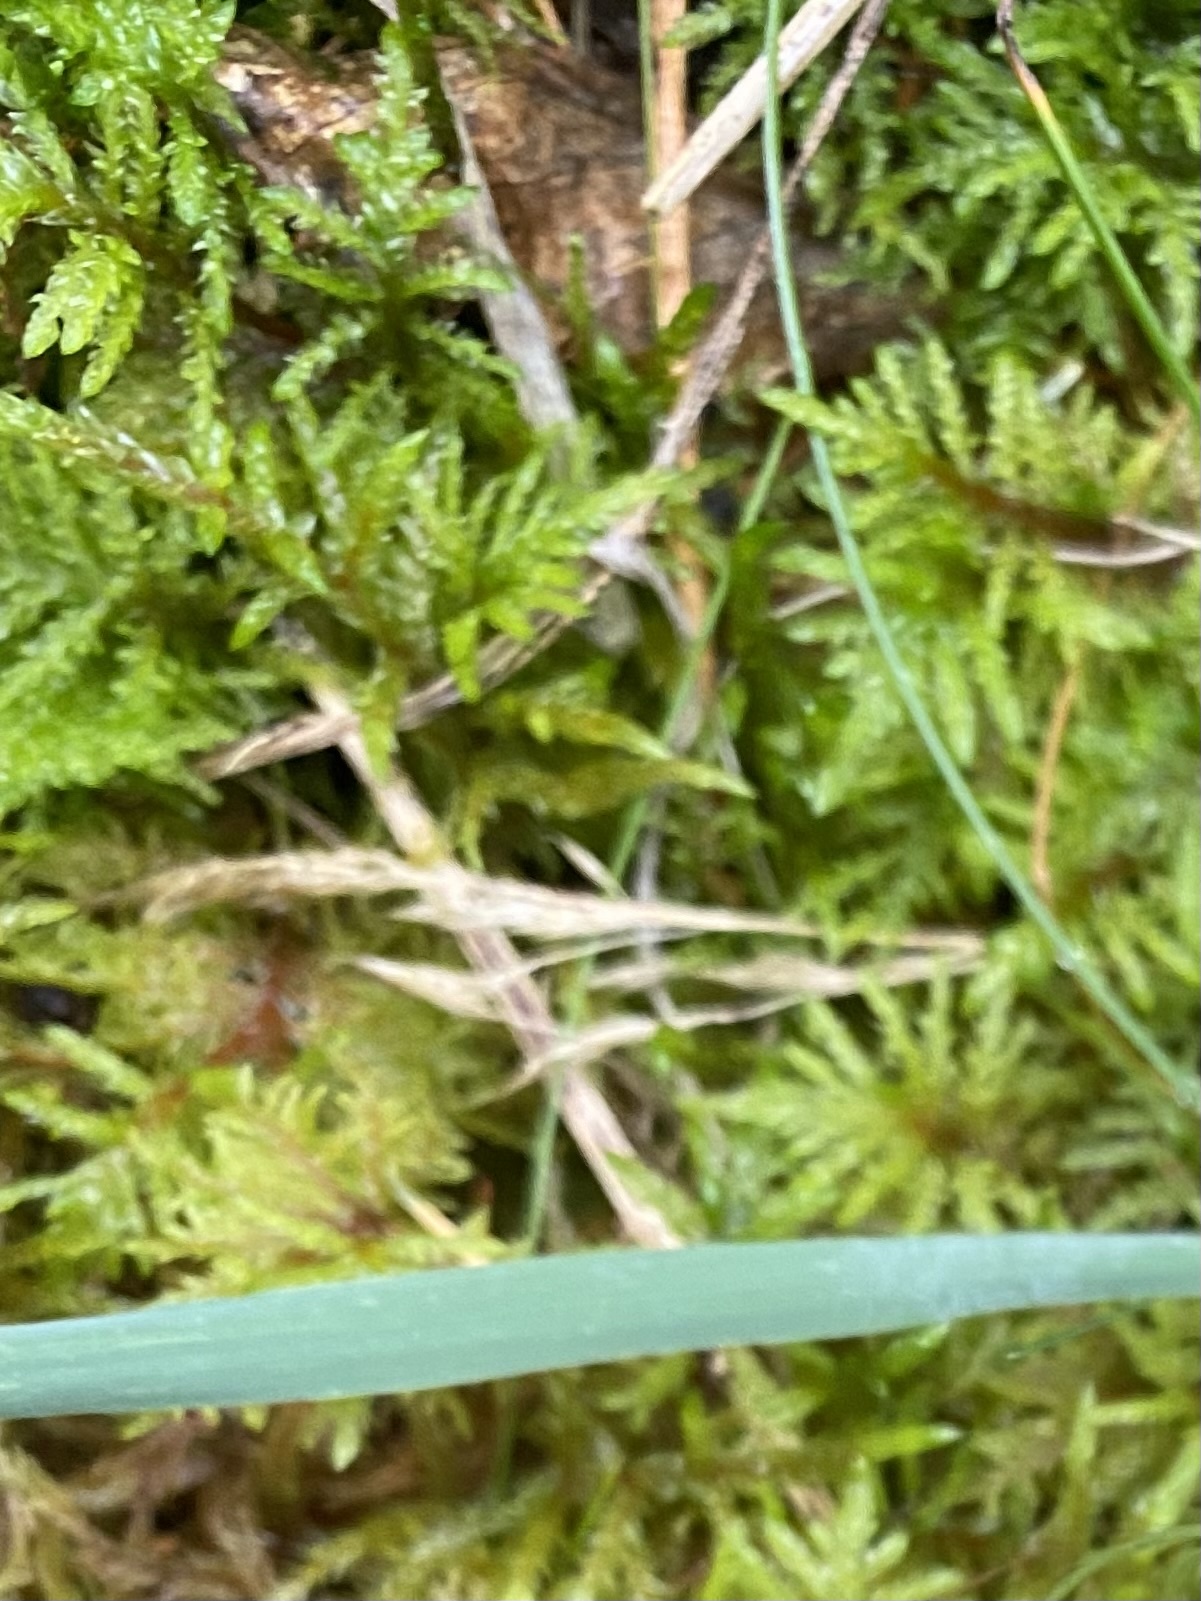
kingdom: Plantae
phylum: Bryophyta
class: Bryopsida
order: Hypnales
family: Hylocomiaceae
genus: Hylocomium
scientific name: Hylocomium splendens
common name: Stairstep moss
